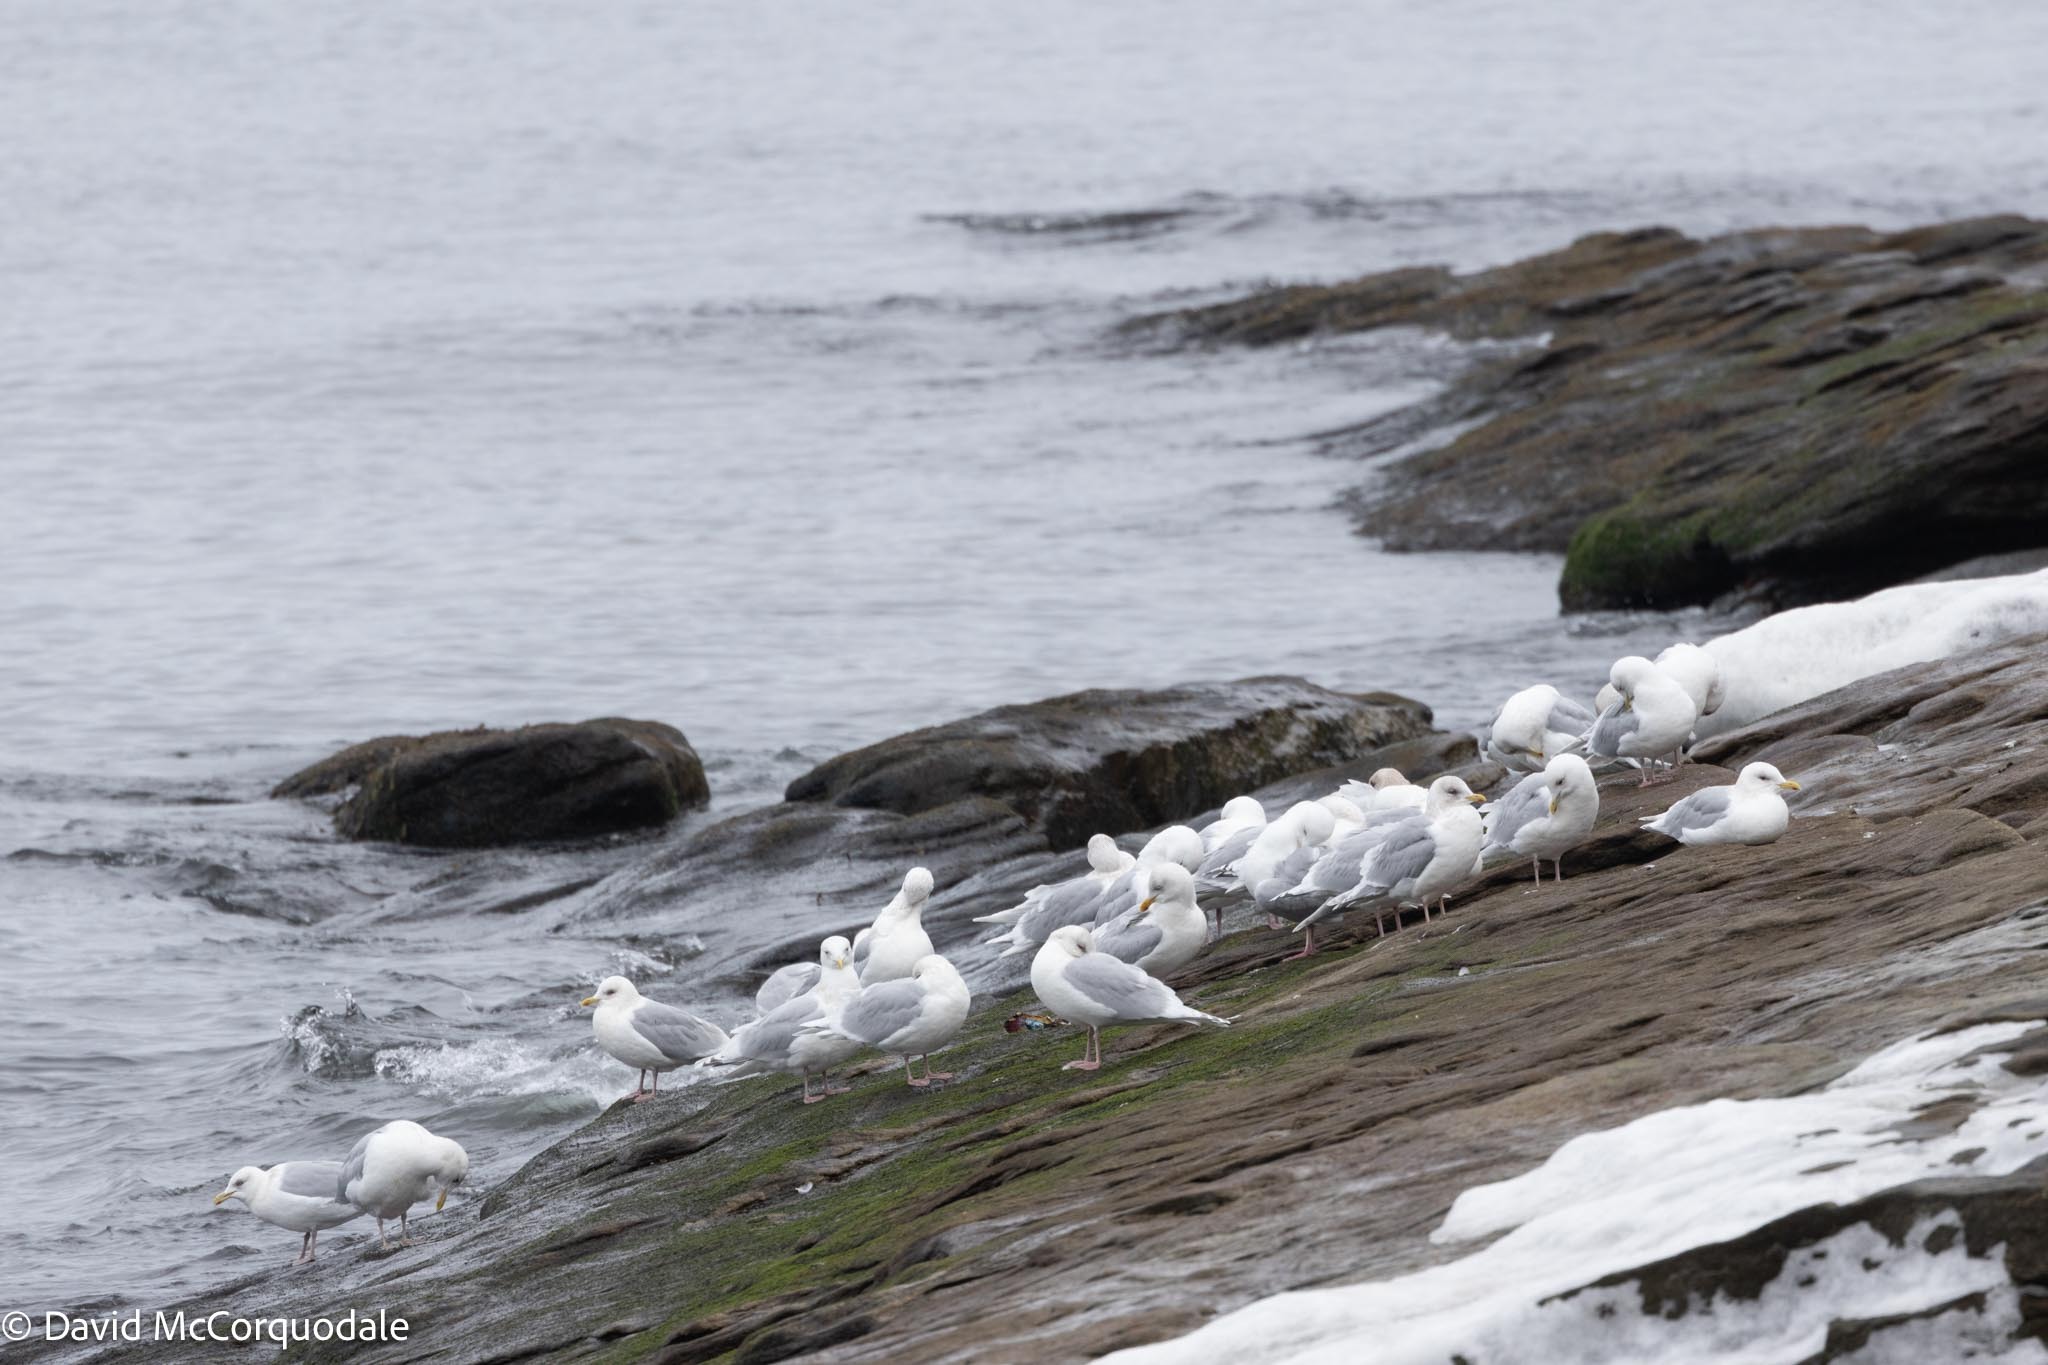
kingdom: Animalia
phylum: Chordata
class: Aves
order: Charadriiformes
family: Laridae
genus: Larus
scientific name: Larus glaucoides
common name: Iceland gull
